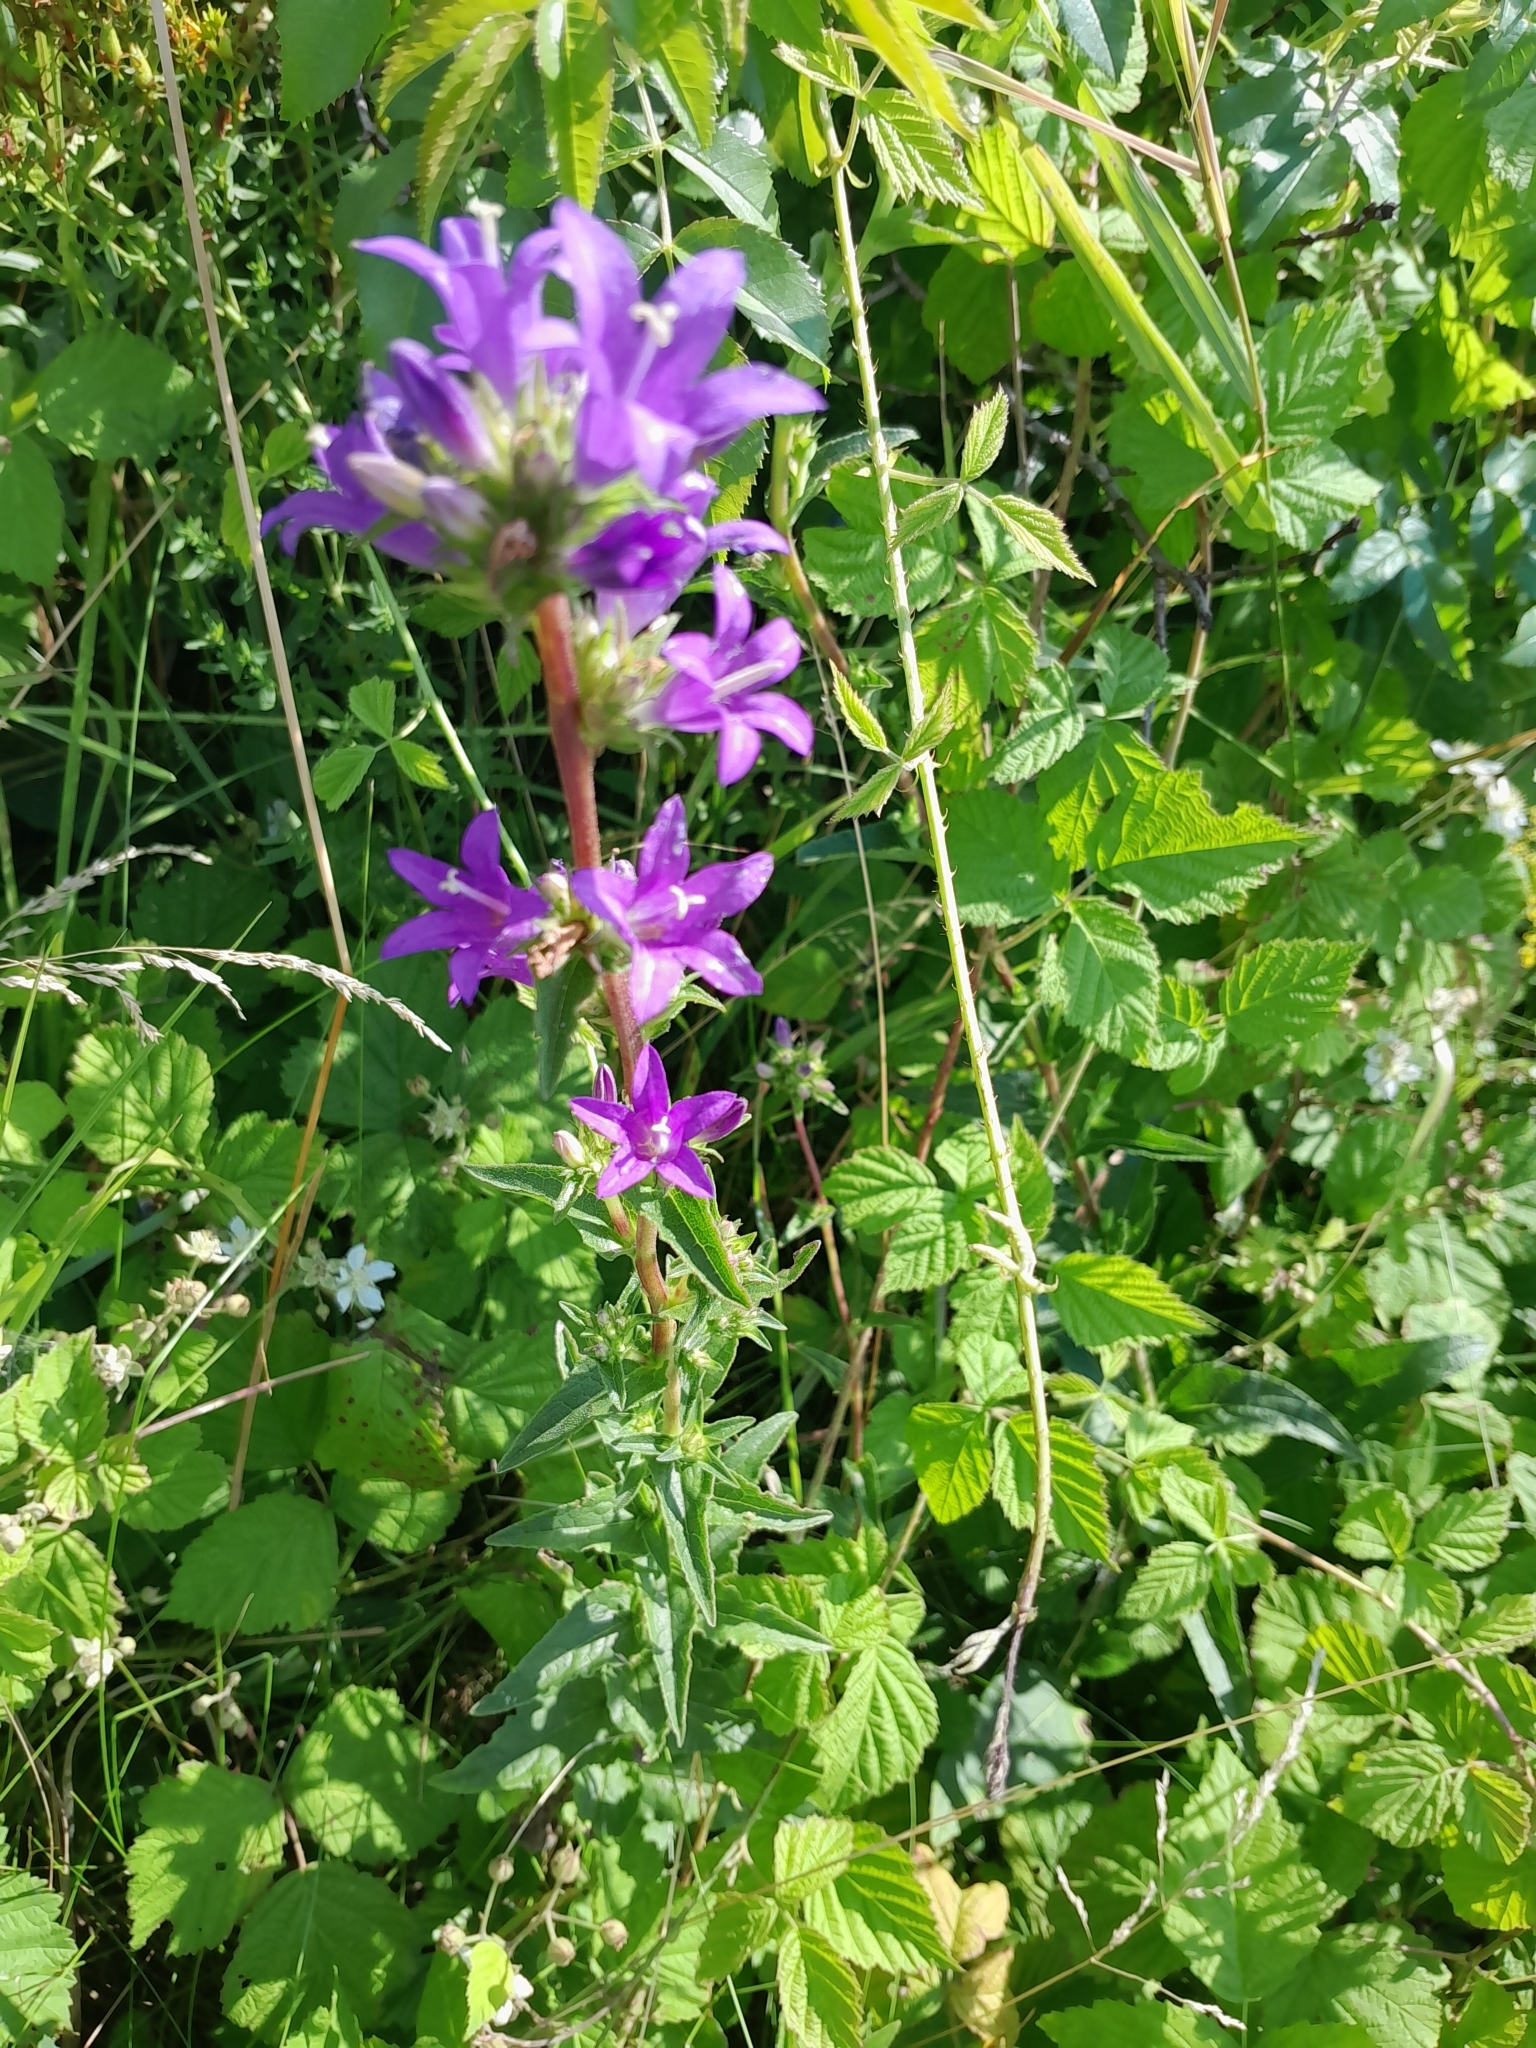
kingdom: Plantae
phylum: Tracheophyta
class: Magnoliopsida
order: Asterales
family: Campanulaceae
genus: Campanula
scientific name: Campanula glomerata
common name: Clustered bellflower
